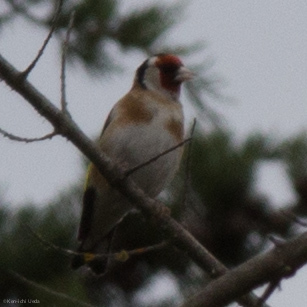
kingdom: Animalia
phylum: Chordata
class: Aves
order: Passeriformes
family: Fringillidae
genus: Carduelis
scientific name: Carduelis carduelis
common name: European goldfinch
